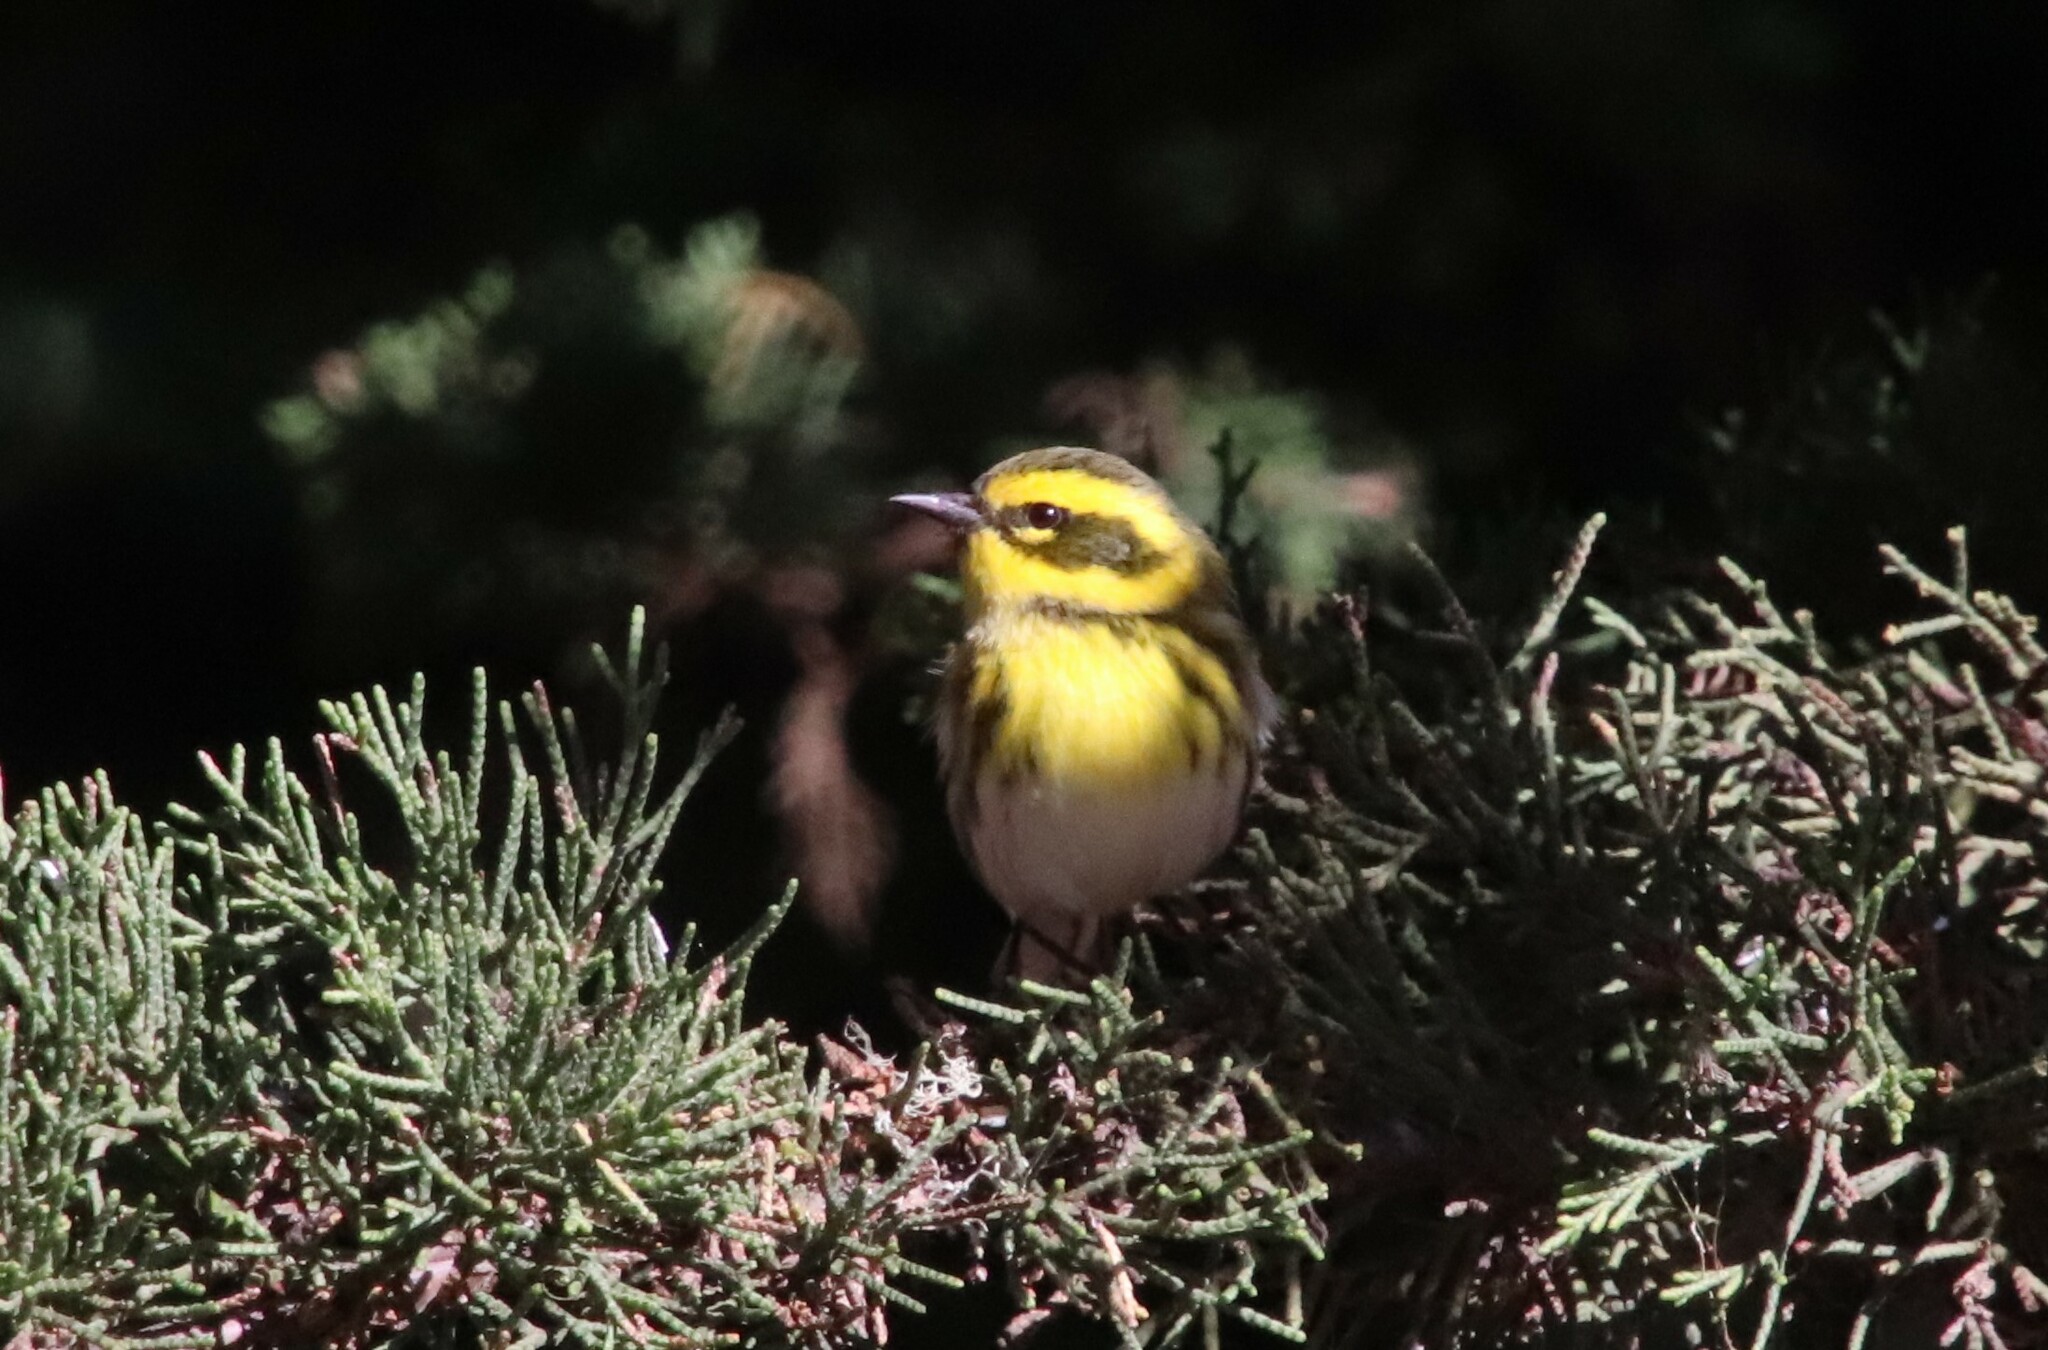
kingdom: Animalia
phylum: Chordata
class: Aves
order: Passeriformes
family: Parulidae
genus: Setophaga
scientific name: Setophaga townsendi
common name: Townsend's warbler
